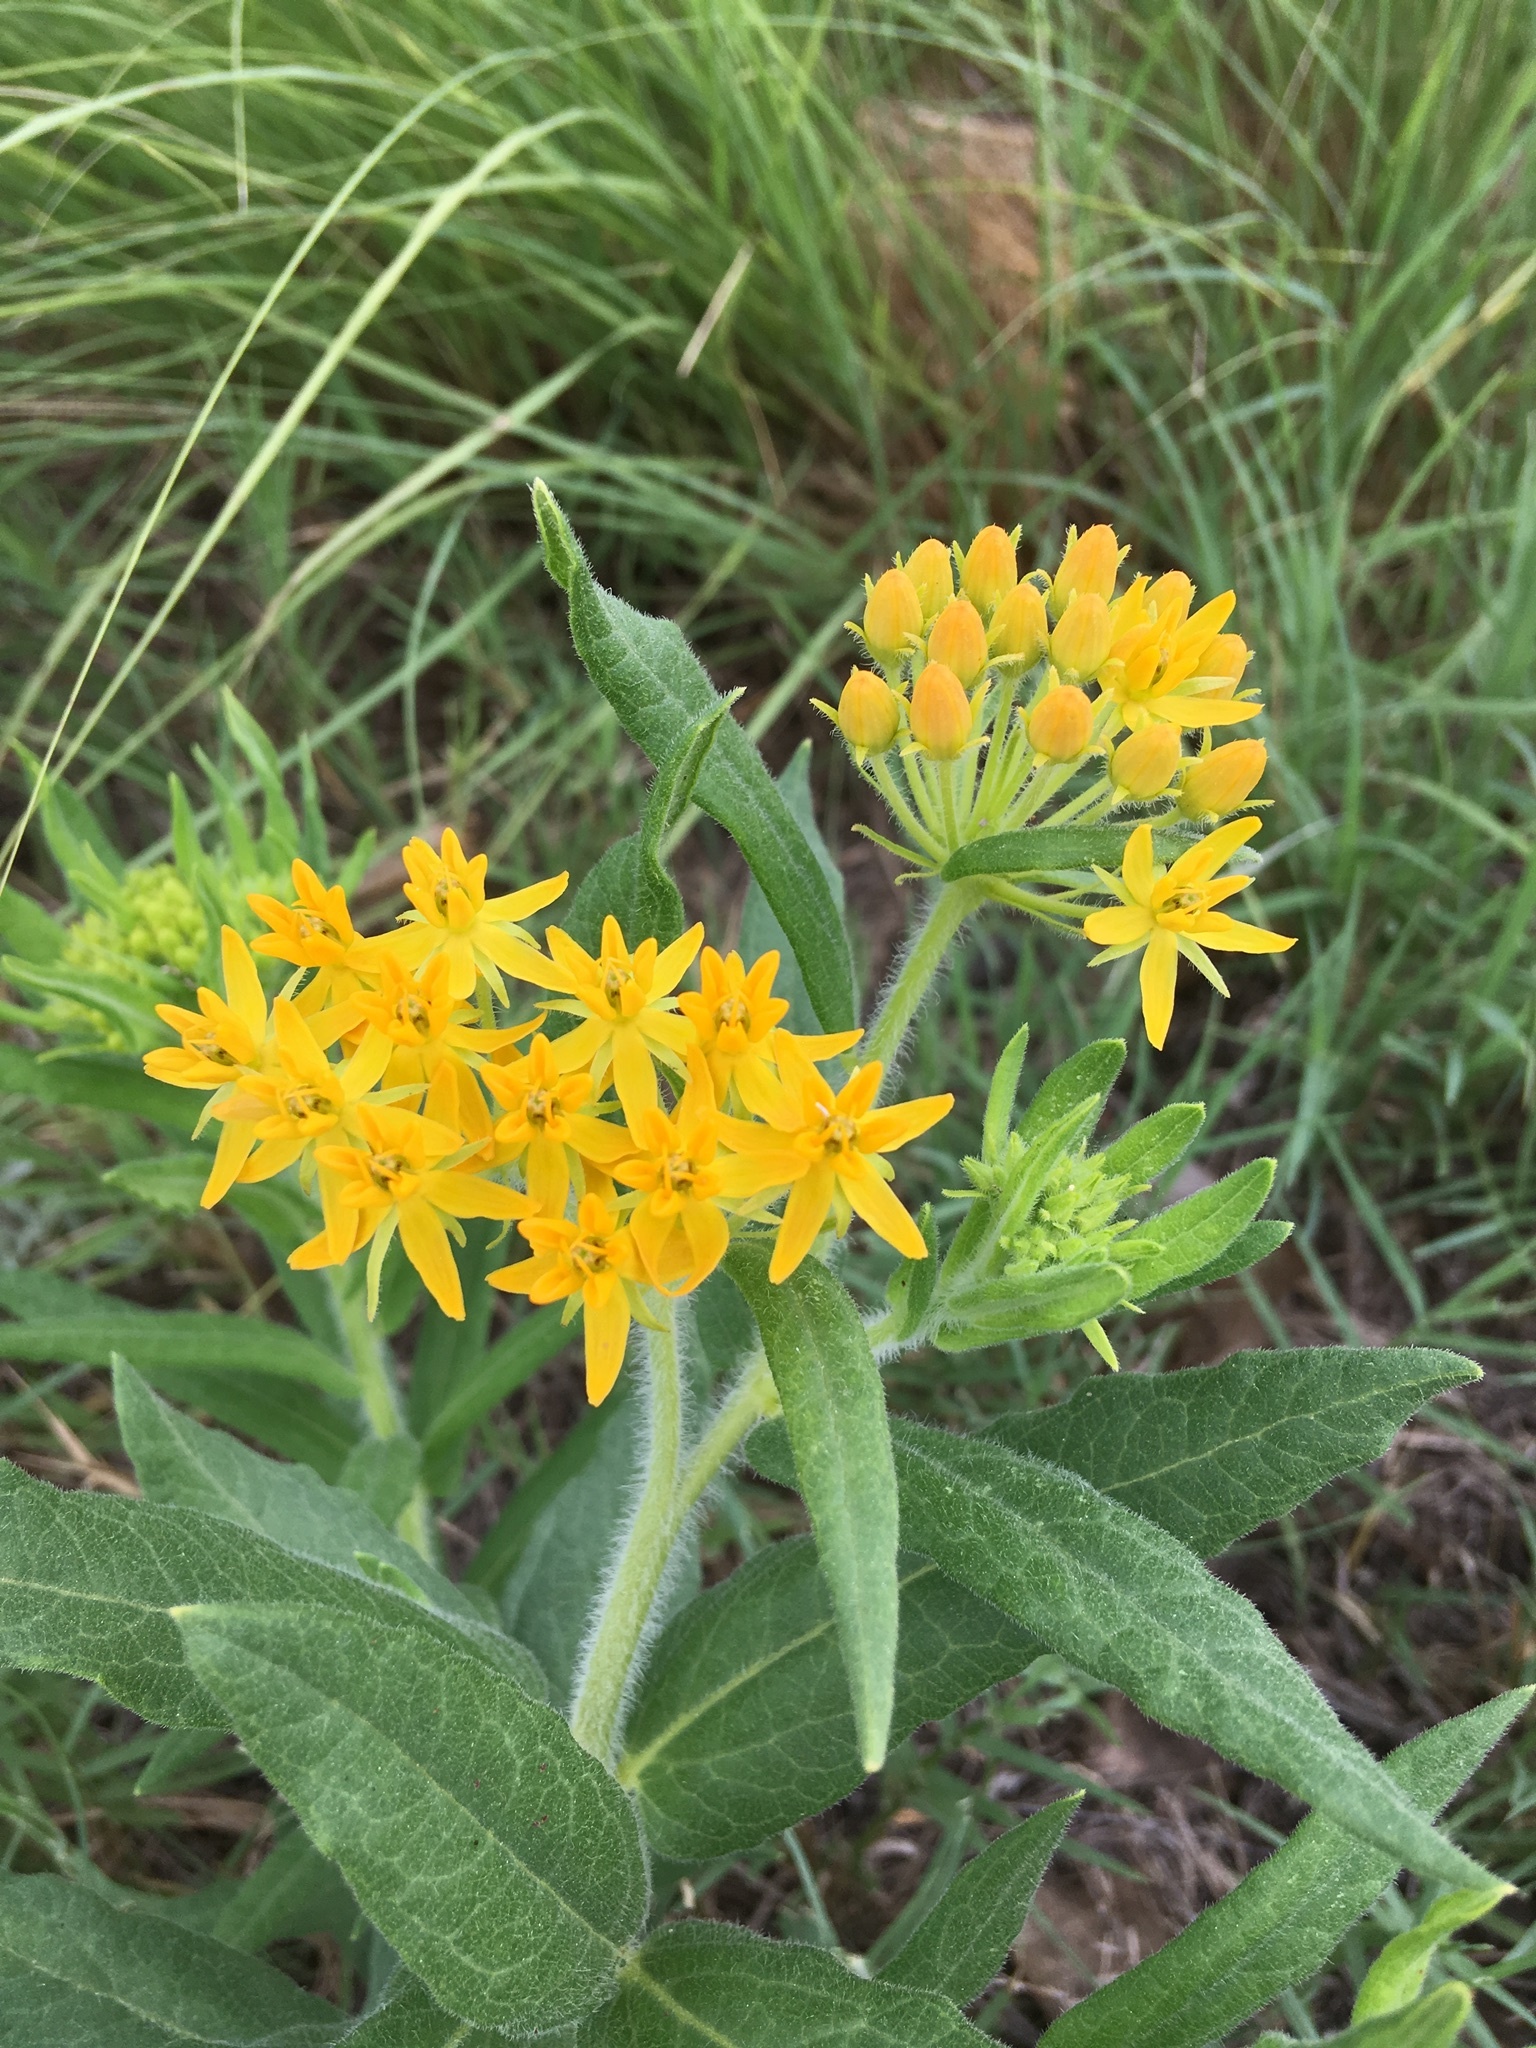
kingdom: Plantae
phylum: Tracheophyta
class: Magnoliopsida
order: Gentianales
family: Apocynaceae
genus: Asclepias
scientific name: Asclepias tuberosa
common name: Butterfly milkweed
